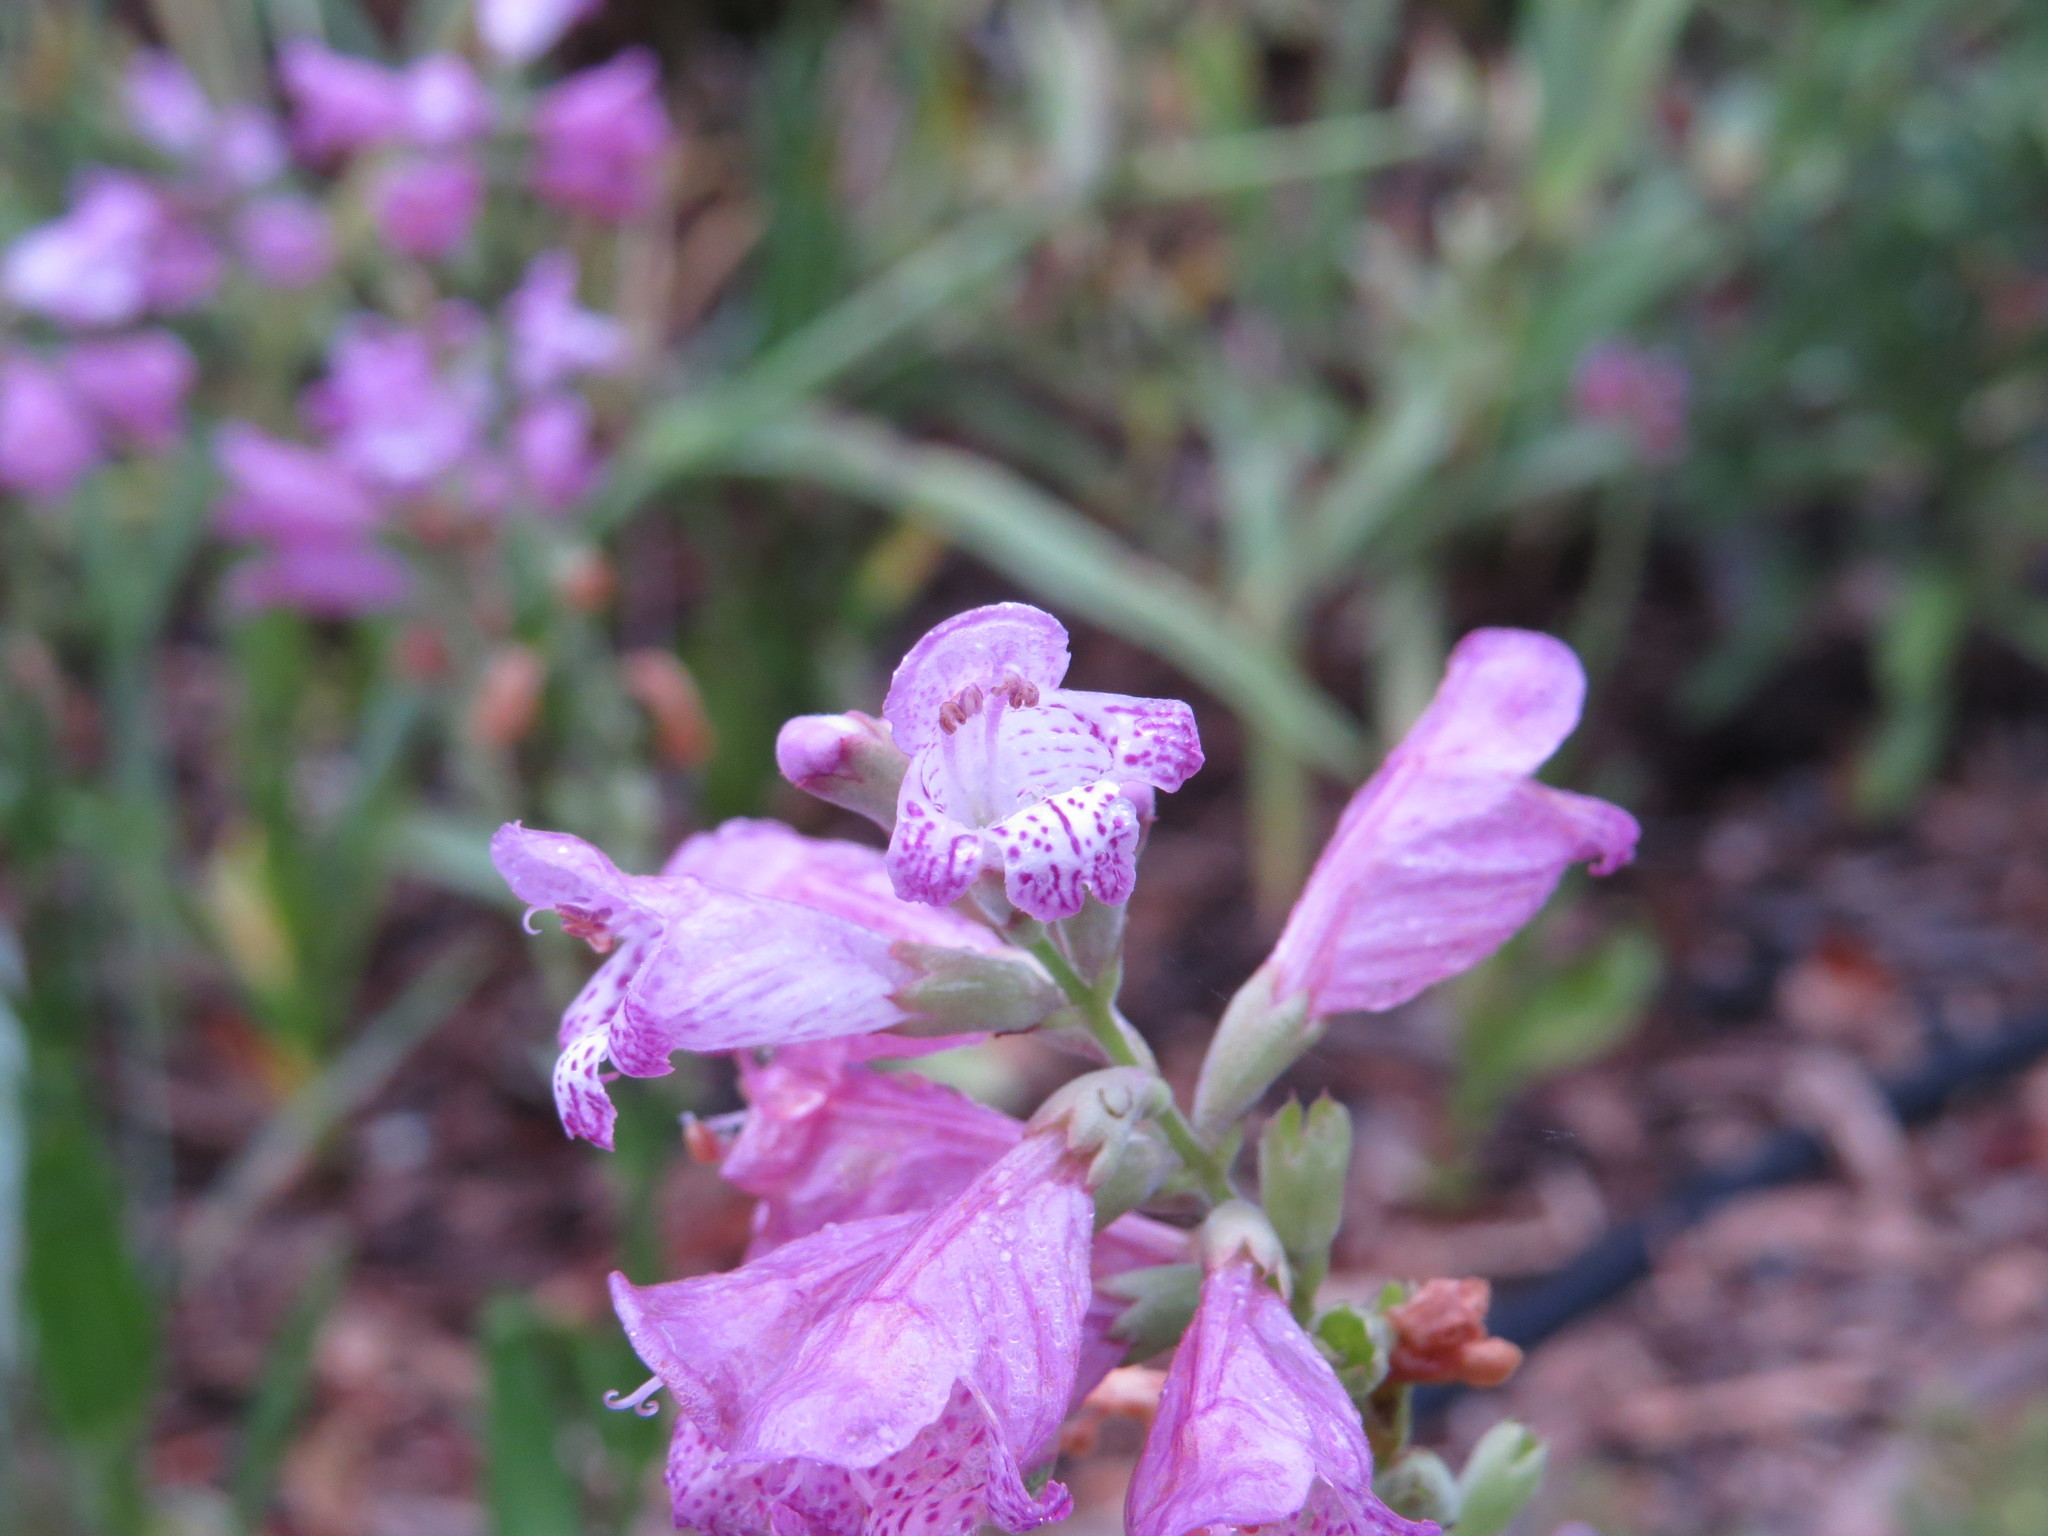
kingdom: Plantae
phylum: Tracheophyta
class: Magnoliopsida
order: Lamiales
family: Lamiaceae
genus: Physostegia
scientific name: Physostegia virginiana
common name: Obedient-plant
